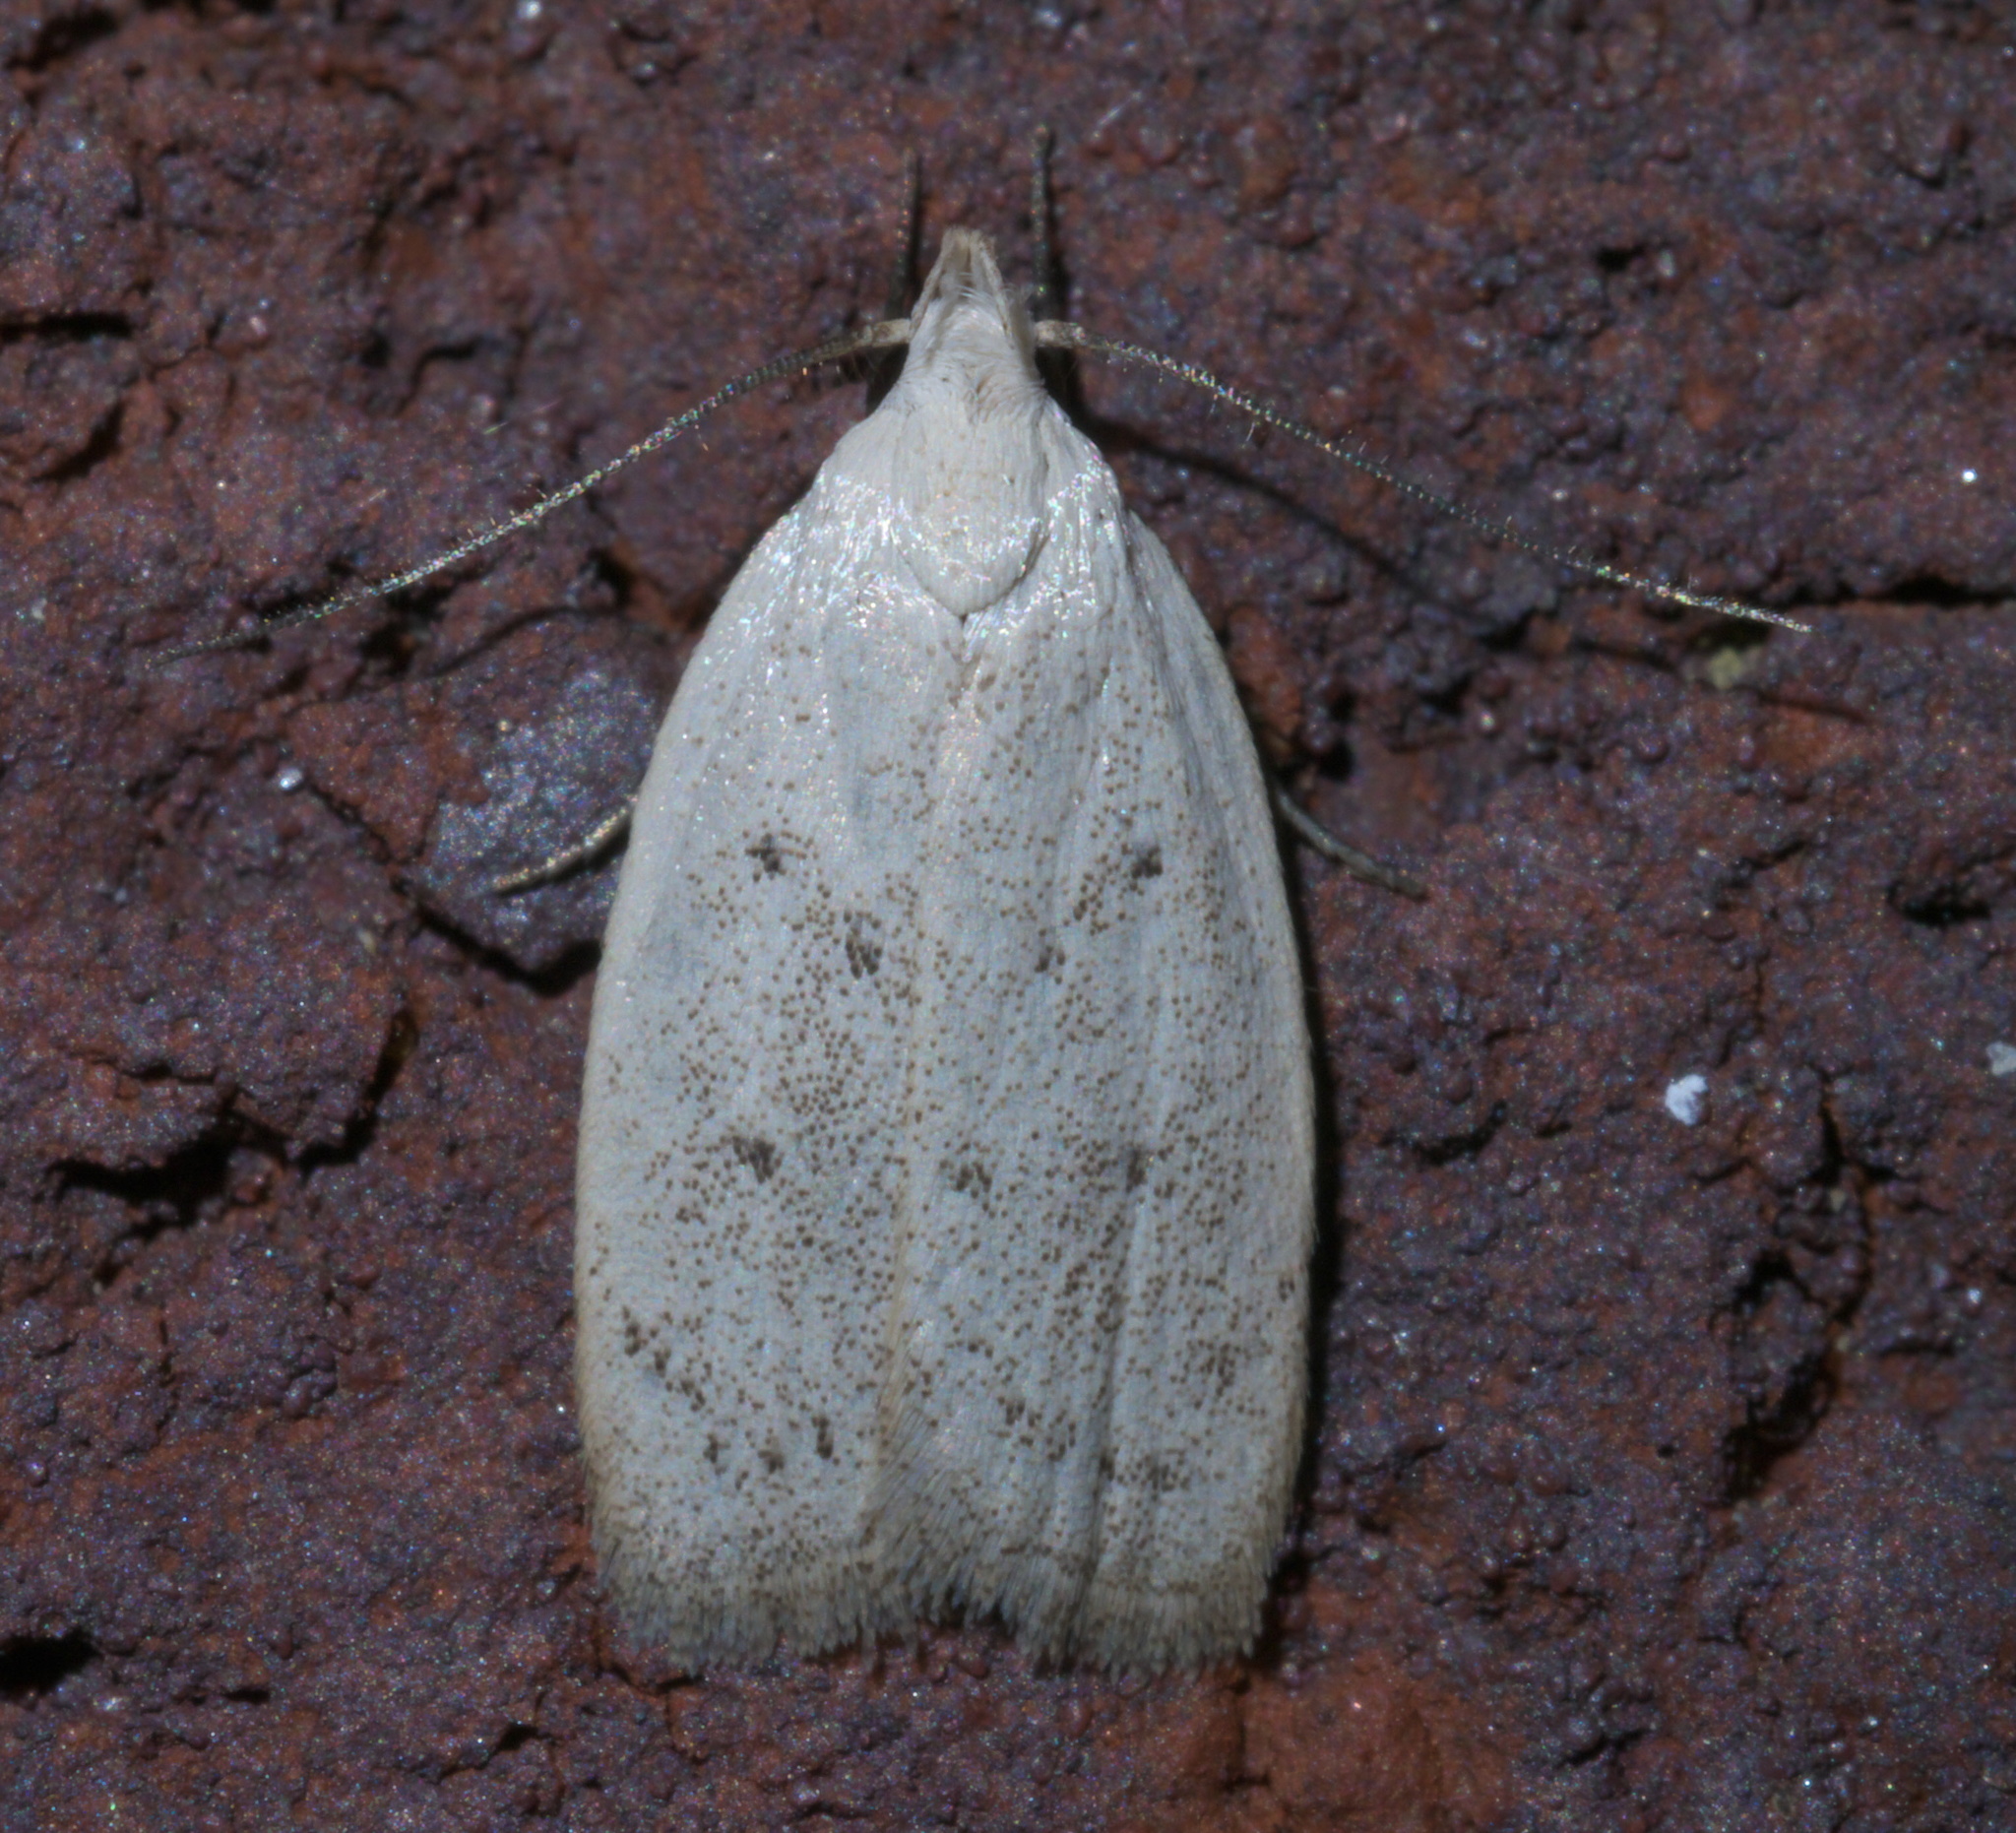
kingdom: Animalia
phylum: Arthropoda
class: Insecta
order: Lepidoptera
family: Oecophoridae
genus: Inga
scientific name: Inga cretacea
